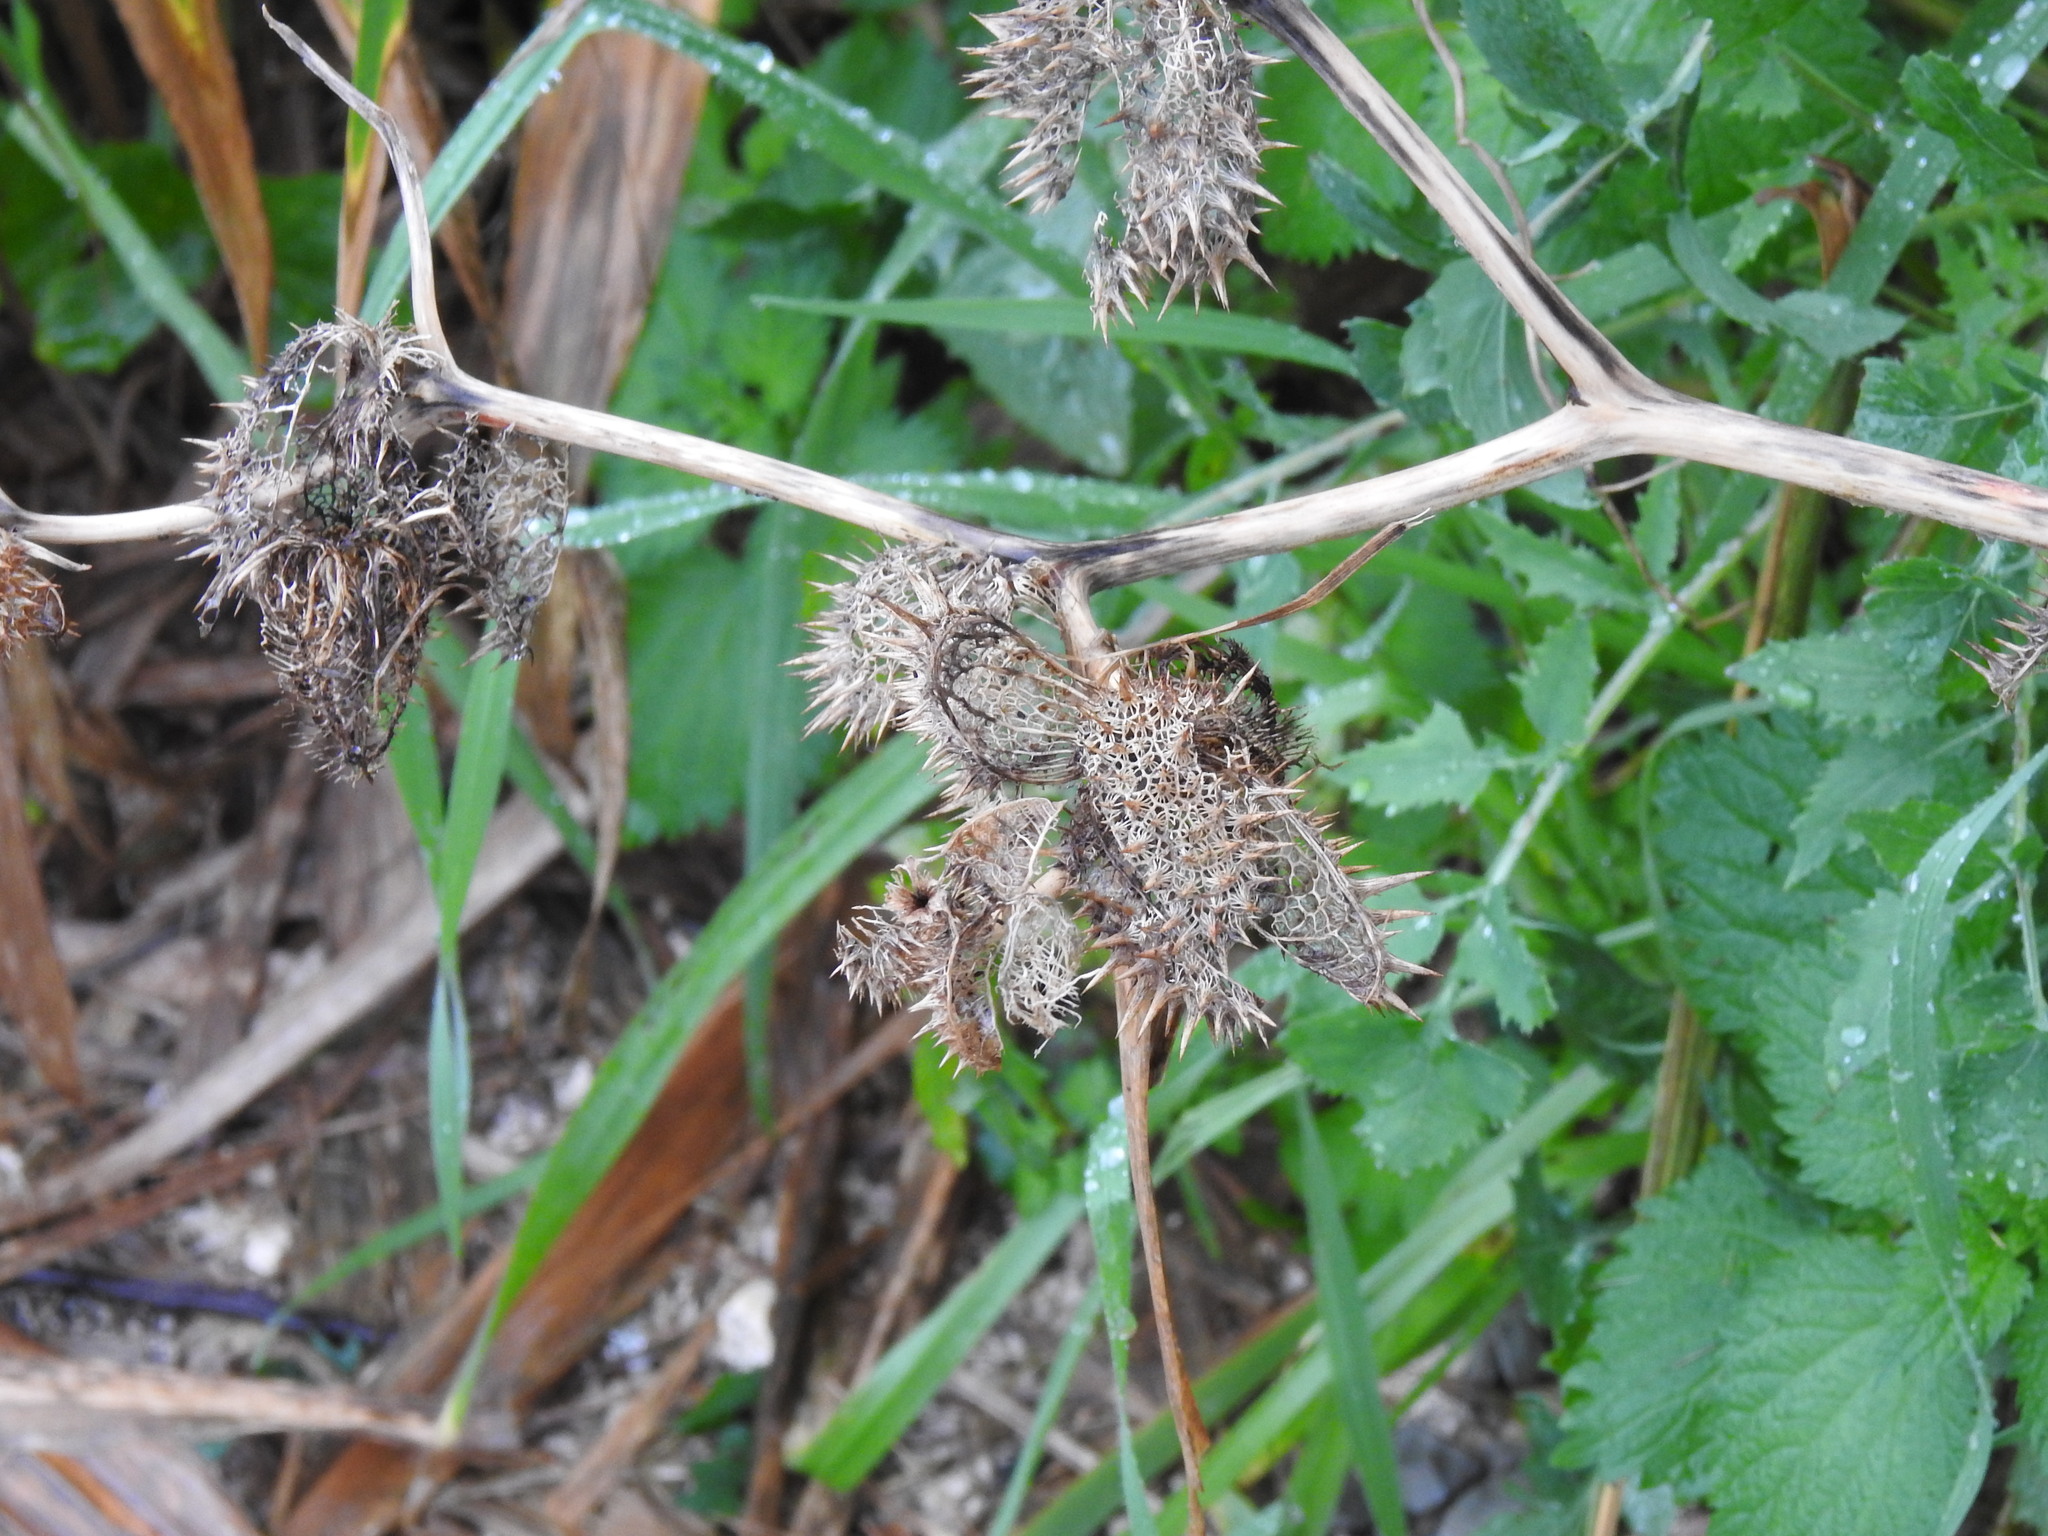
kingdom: Plantae
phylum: Tracheophyta
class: Magnoliopsida
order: Solanales
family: Solanaceae
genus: Datura
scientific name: Datura stramonium
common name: Thorn-apple
